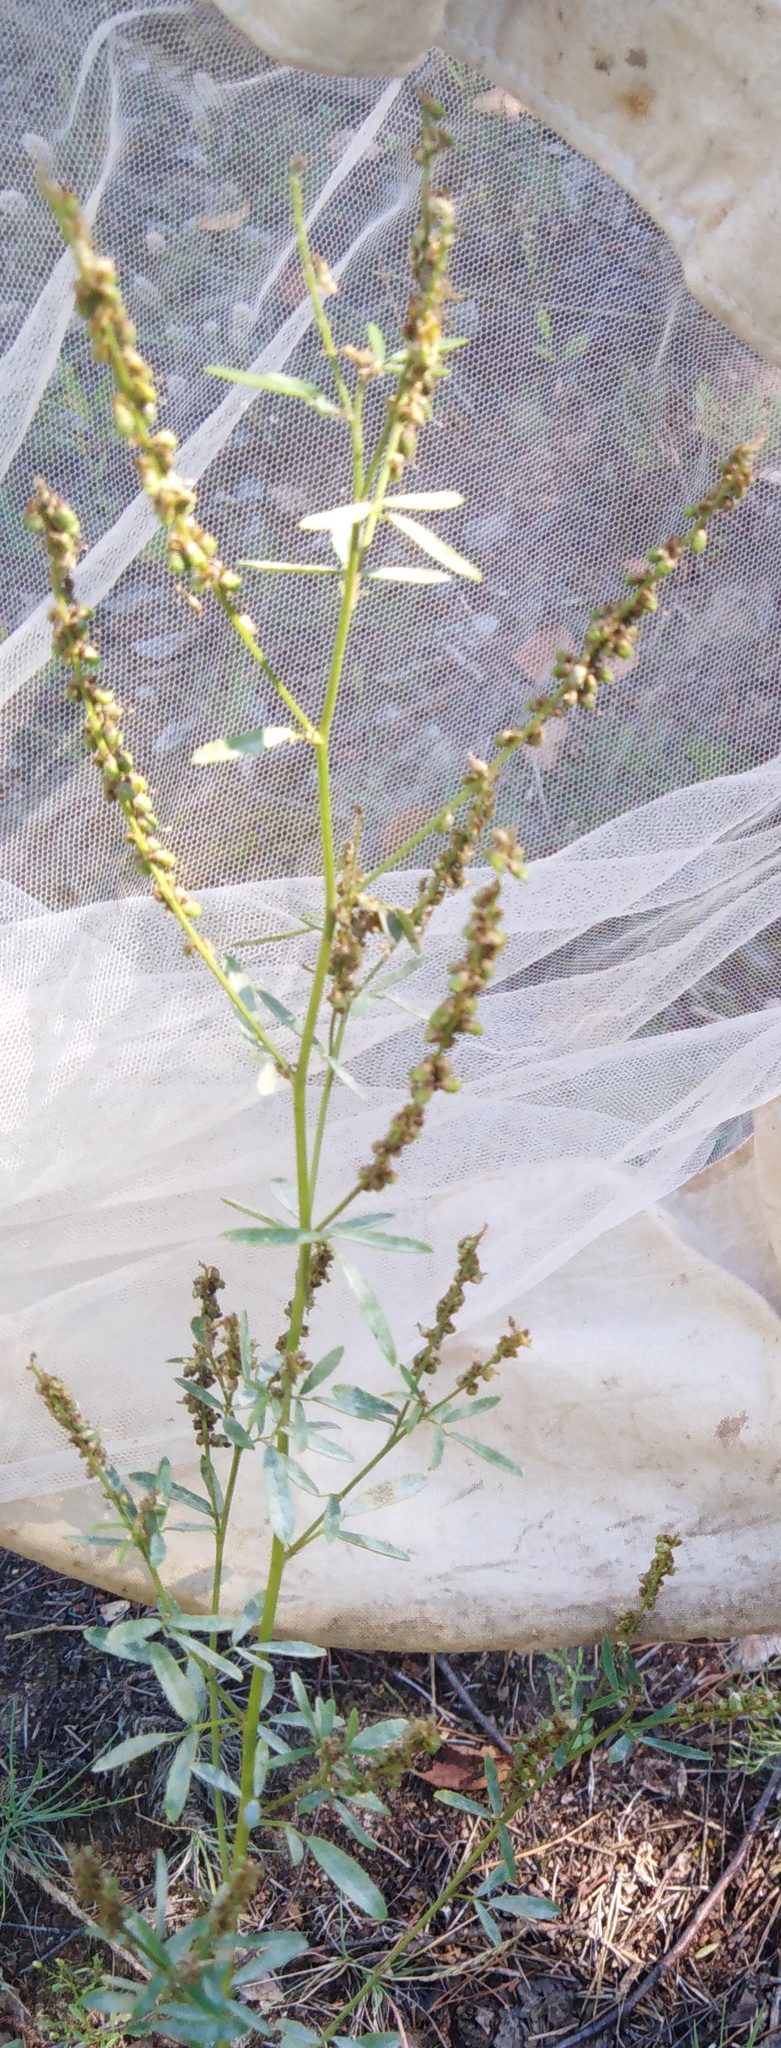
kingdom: Plantae
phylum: Tracheophyta
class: Magnoliopsida
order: Fabales
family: Fabaceae
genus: Melilotus
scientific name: Melilotus
